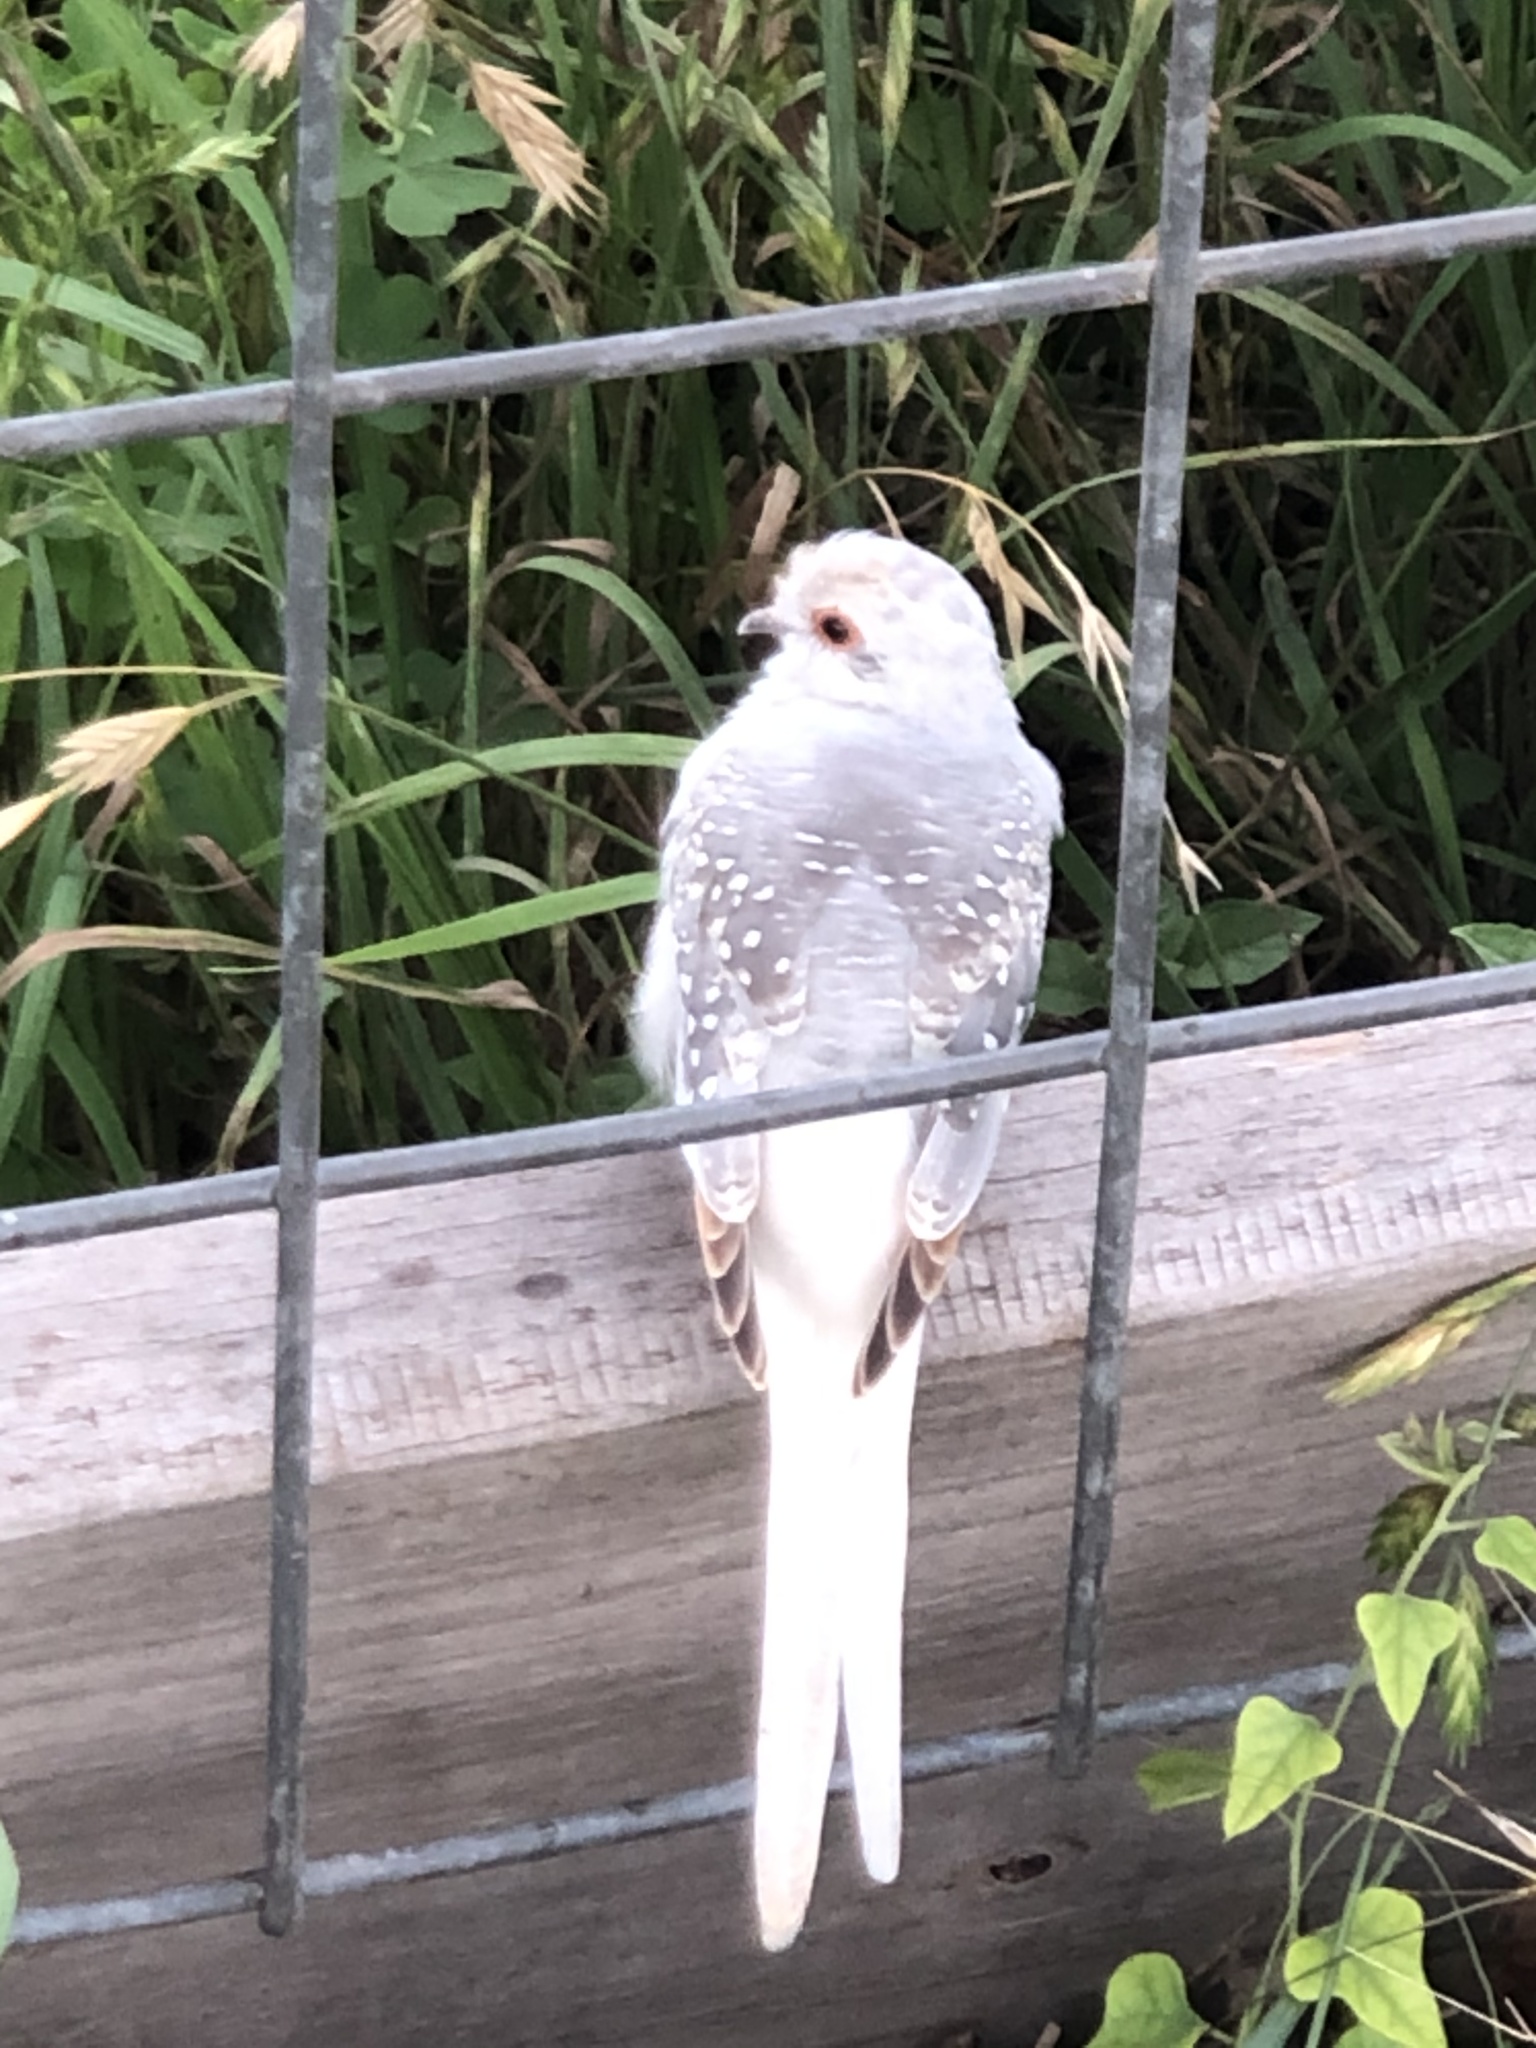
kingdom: Animalia
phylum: Chordata
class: Aves
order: Columbiformes
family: Columbidae
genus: Geopelia
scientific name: Geopelia cuneata
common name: Diamond dove
